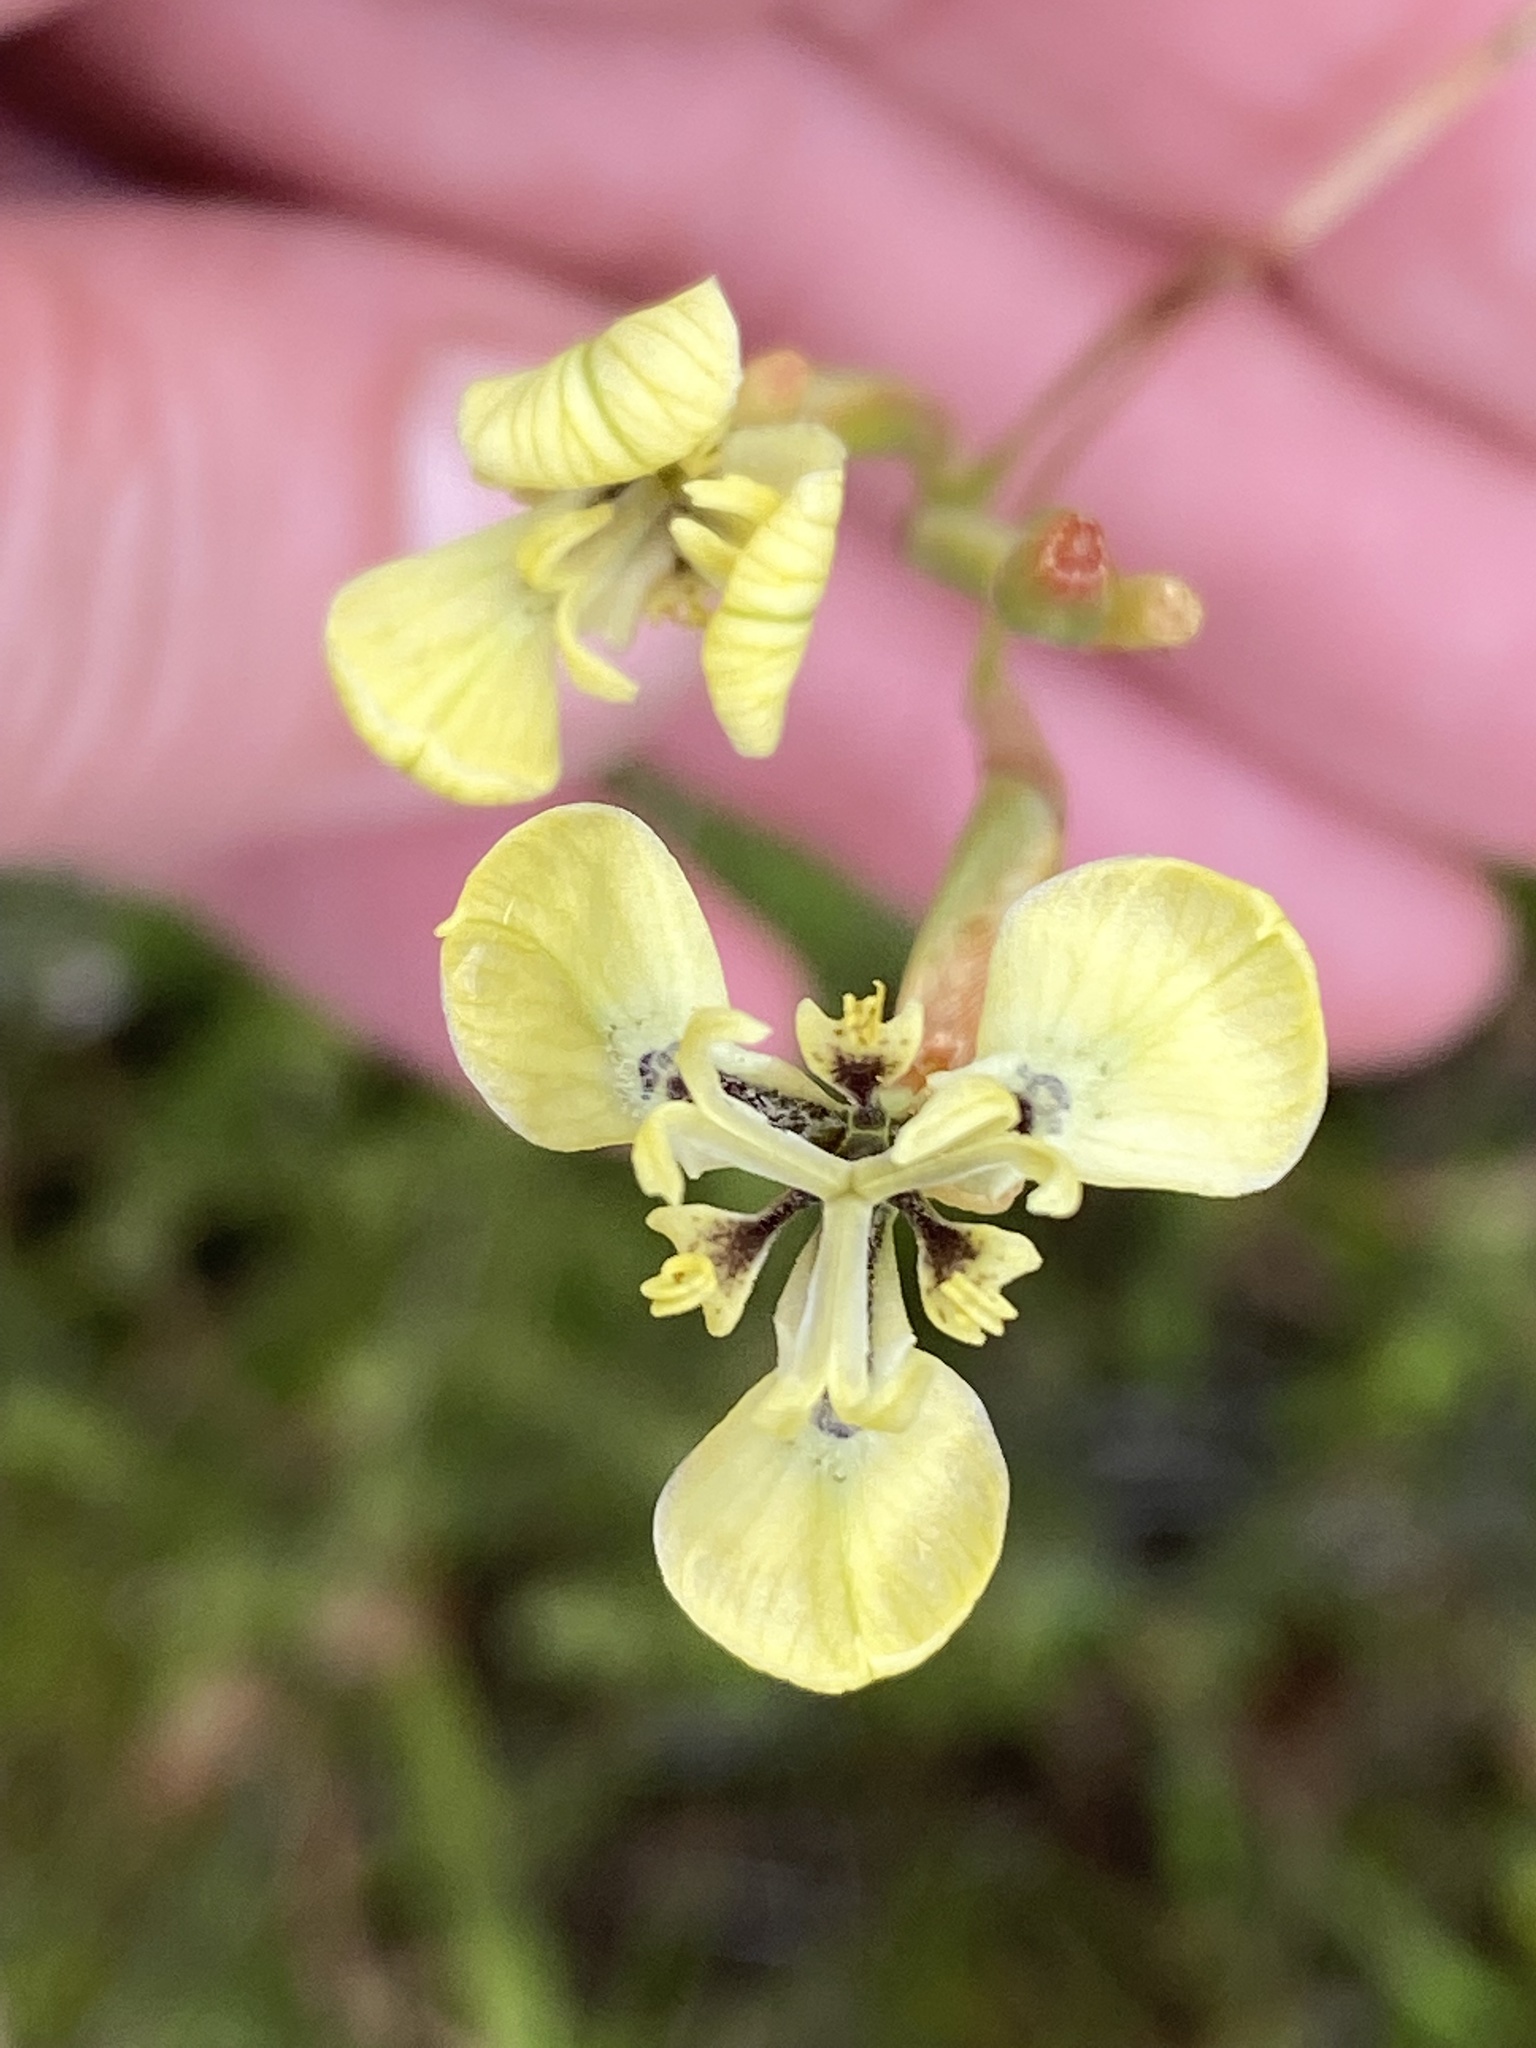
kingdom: Plantae
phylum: Tracheophyta
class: Liliopsida
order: Asparagales
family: Iridaceae
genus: Moraea
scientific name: Moraea bellendenii
